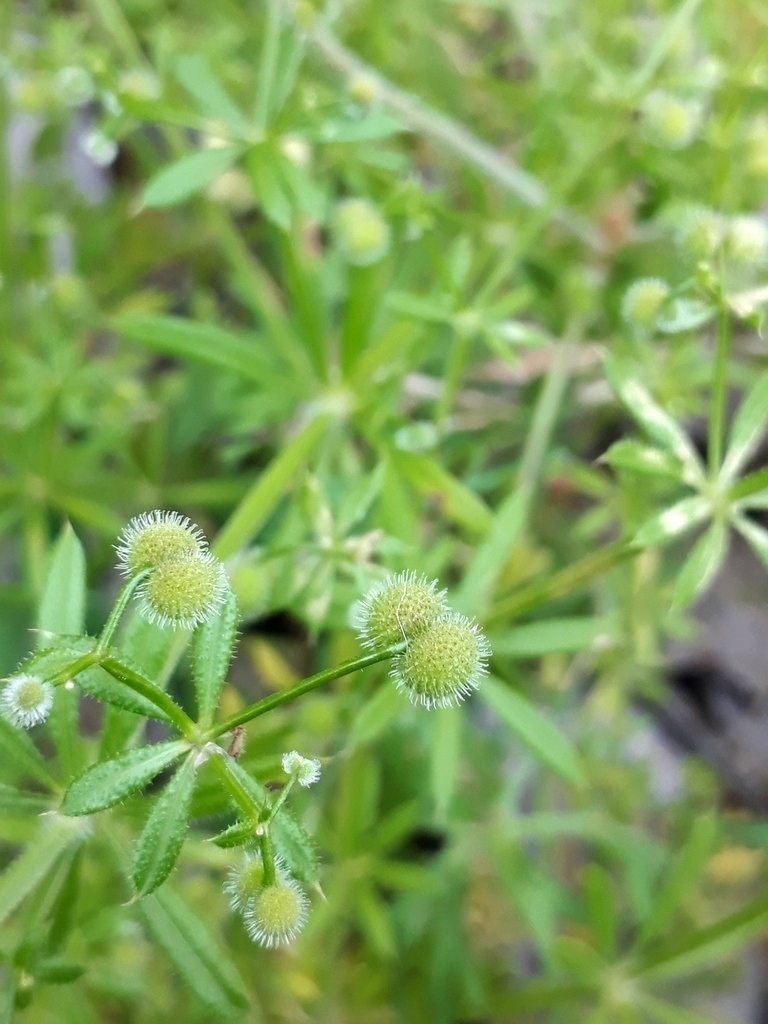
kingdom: Plantae
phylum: Tracheophyta
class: Magnoliopsida
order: Gentianales
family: Rubiaceae
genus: Galium
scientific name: Galium aparine
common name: Cleavers
